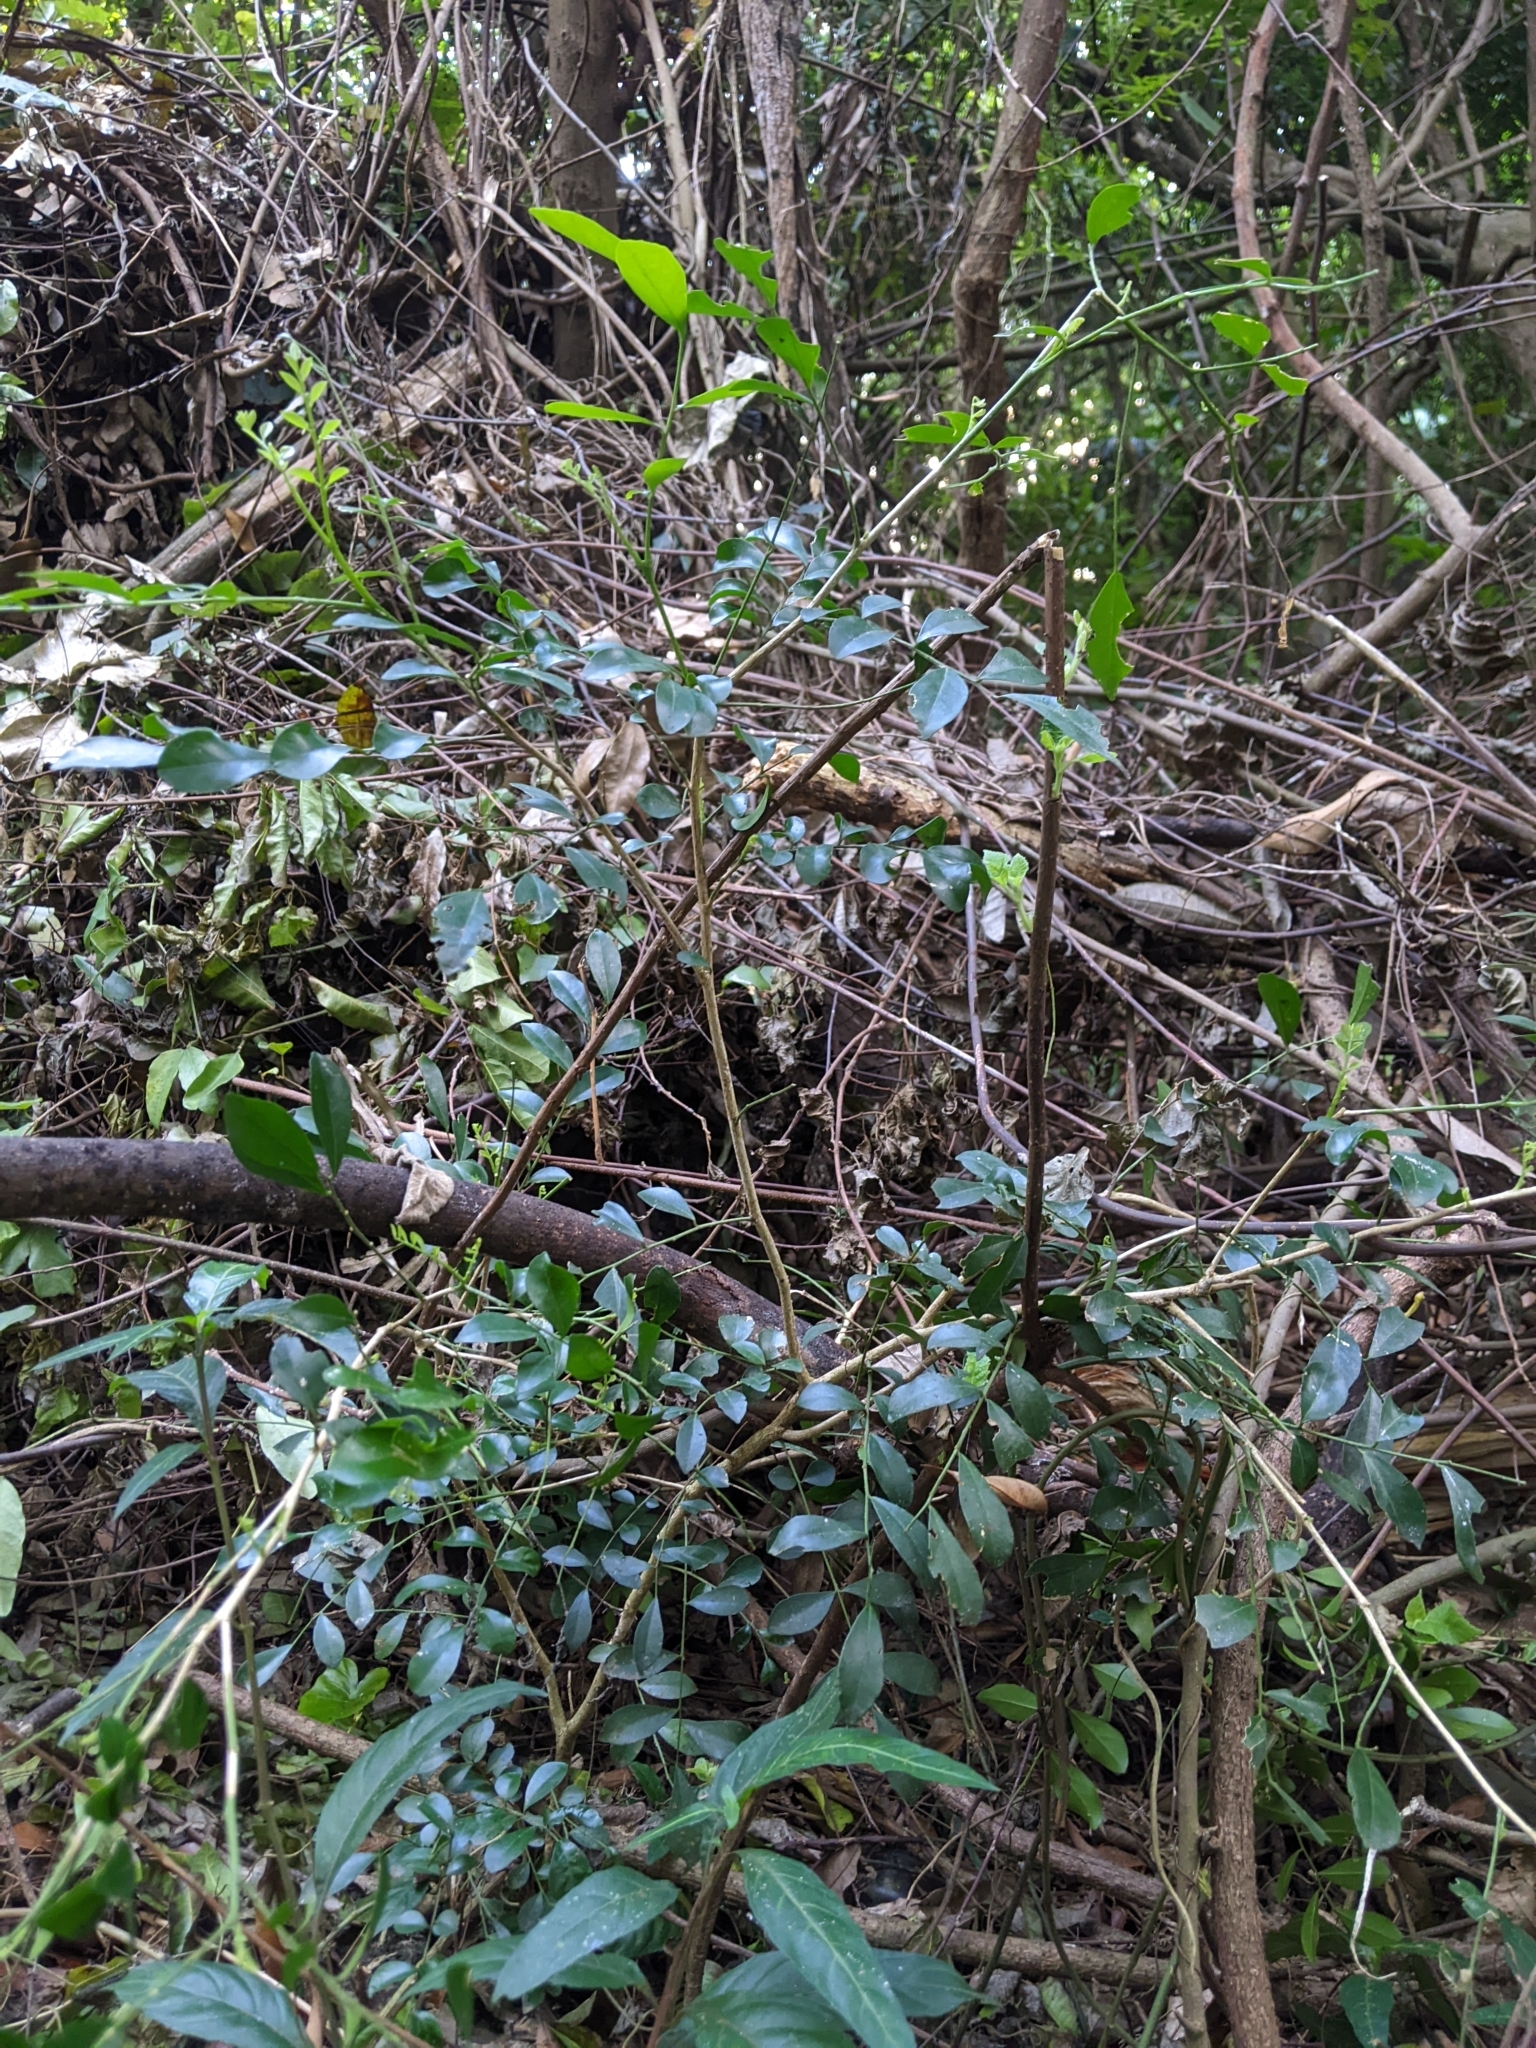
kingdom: Plantae
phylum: Tracheophyta
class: Magnoliopsida
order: Sapindales
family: Rutaceae
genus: Murraya
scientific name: Murraya paniculata
